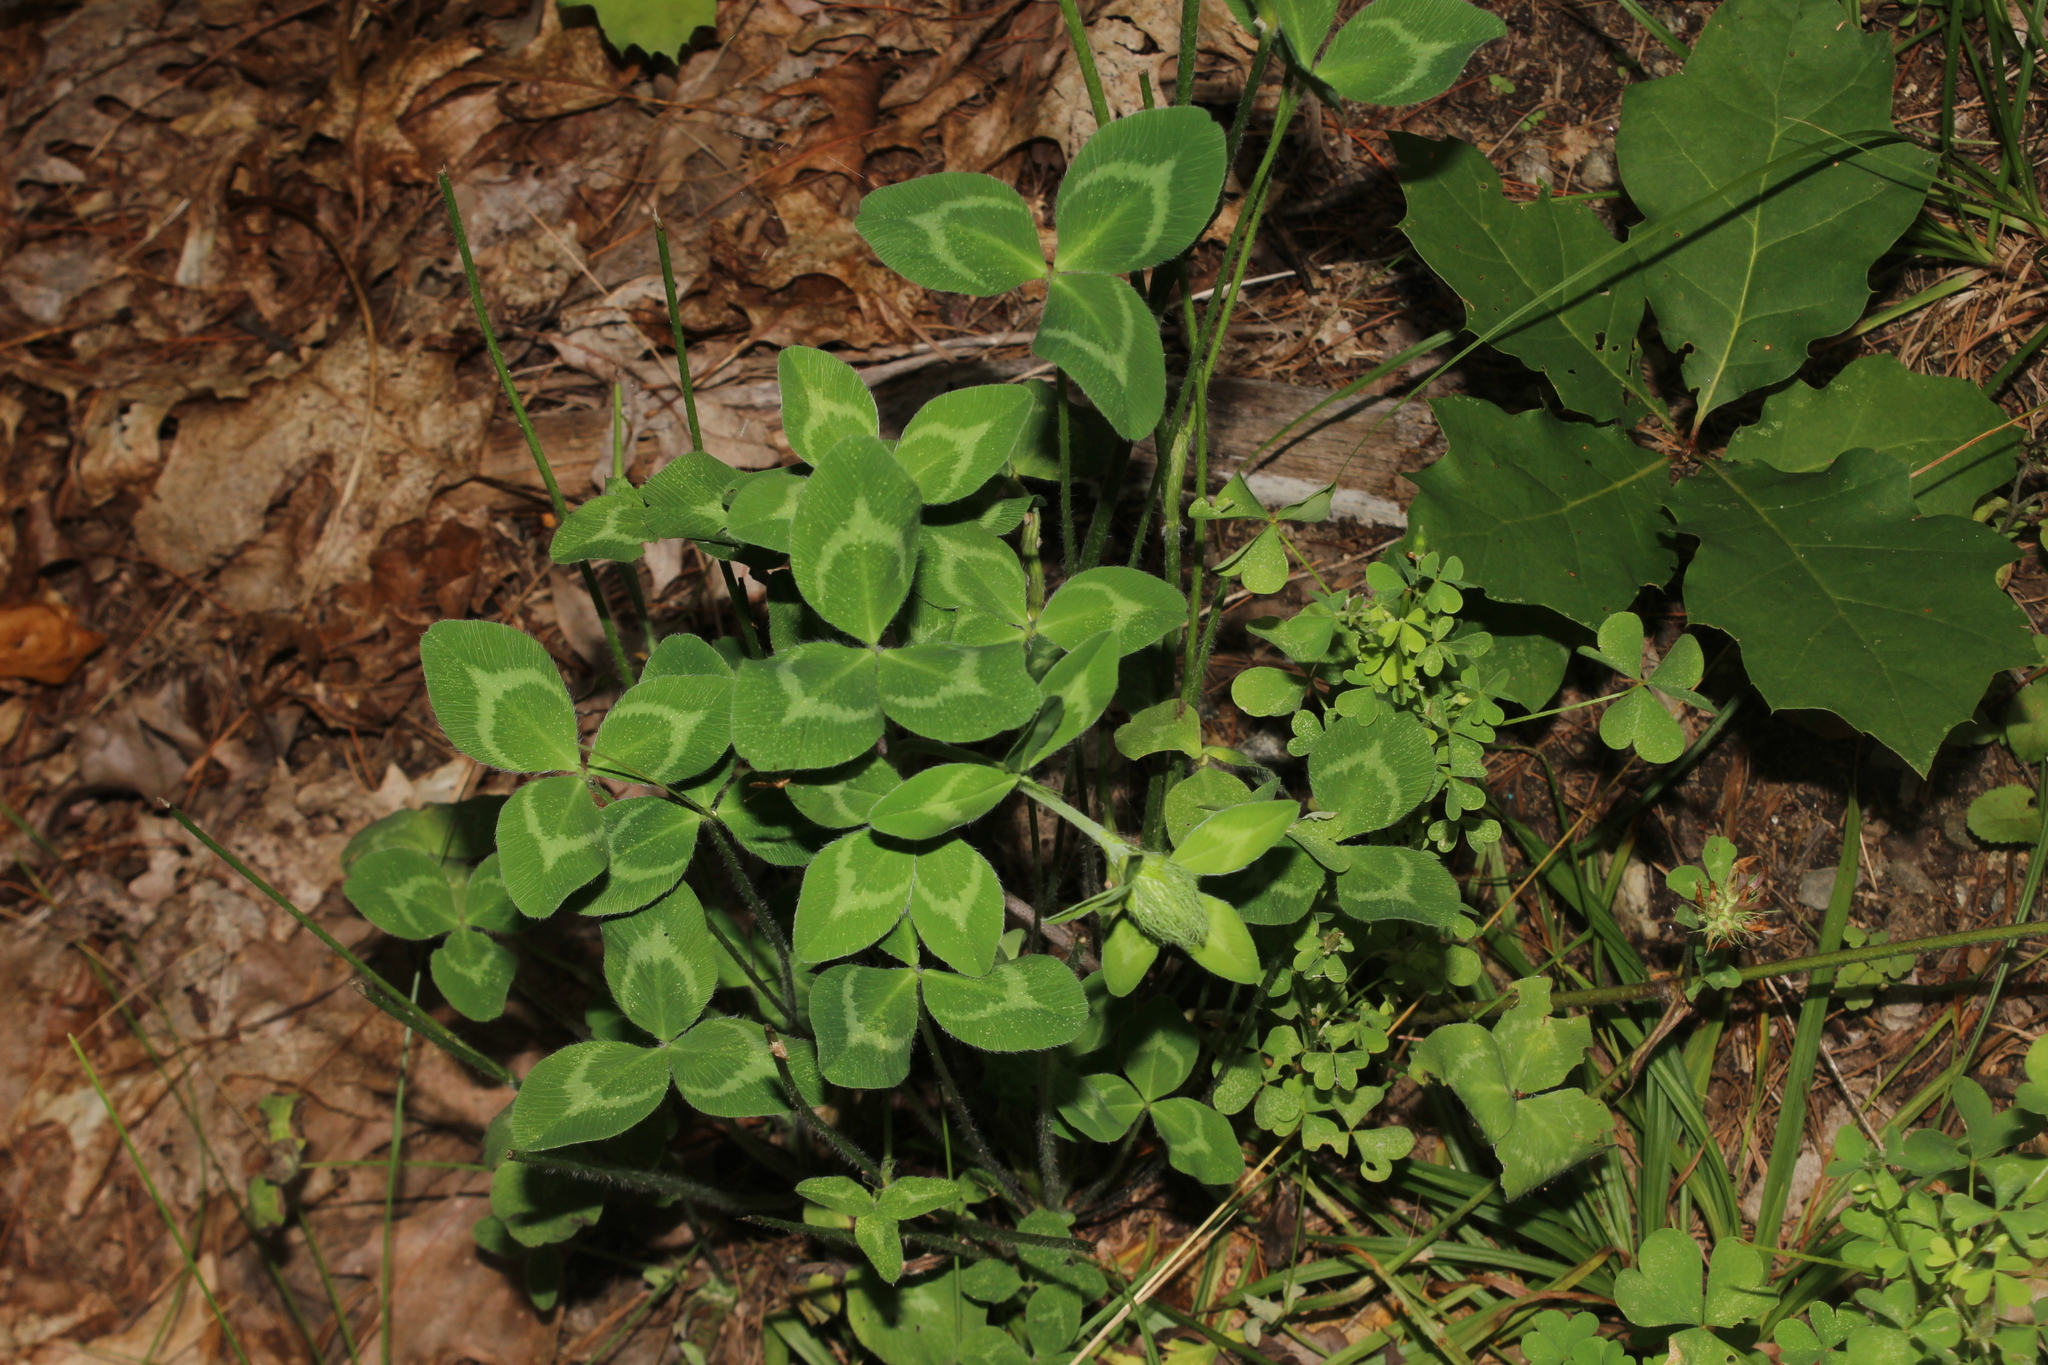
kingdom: Plantae
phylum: Tracheophyta
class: Magnoliopsida
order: Fabales
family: Fabaceae
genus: Trifolium
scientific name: Trifolium pratense
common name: Red clover
